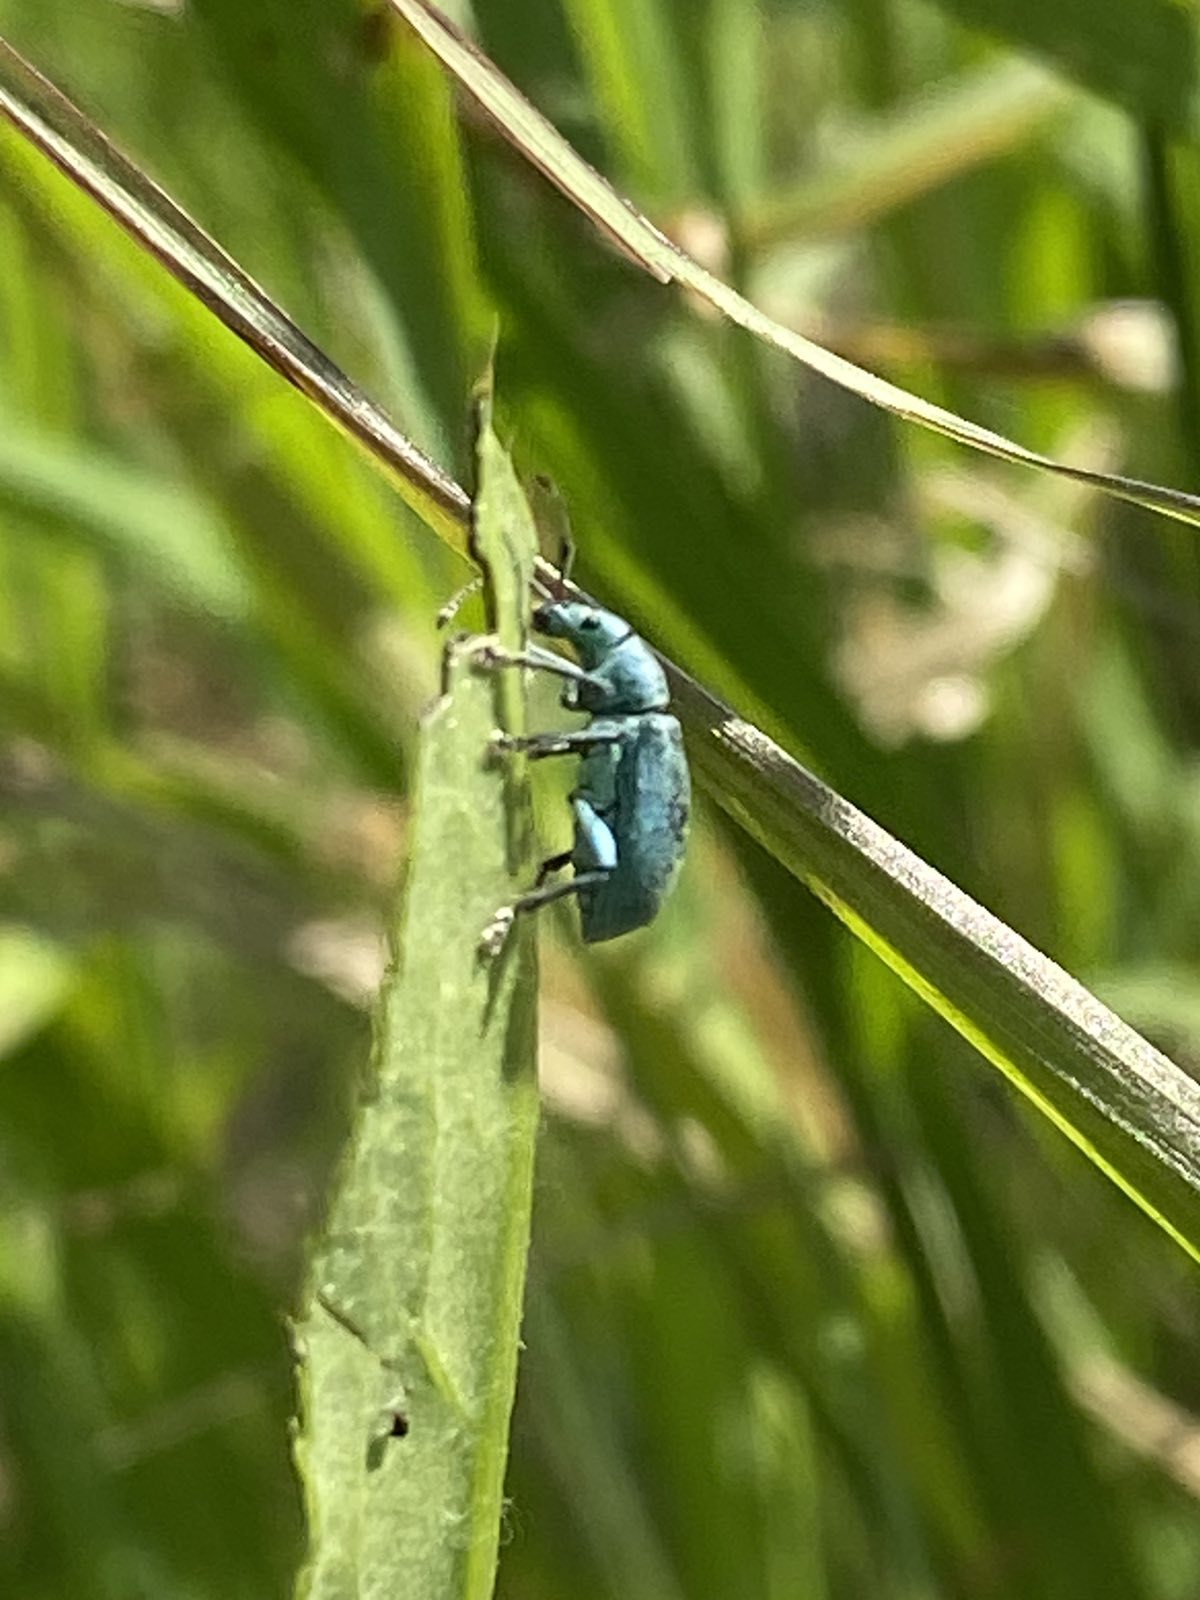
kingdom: Animalia
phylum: Arthropoda
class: Insecta
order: Coleoptera
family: Curculionidae
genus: Phyllobius
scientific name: Phyllobius thalassinus
